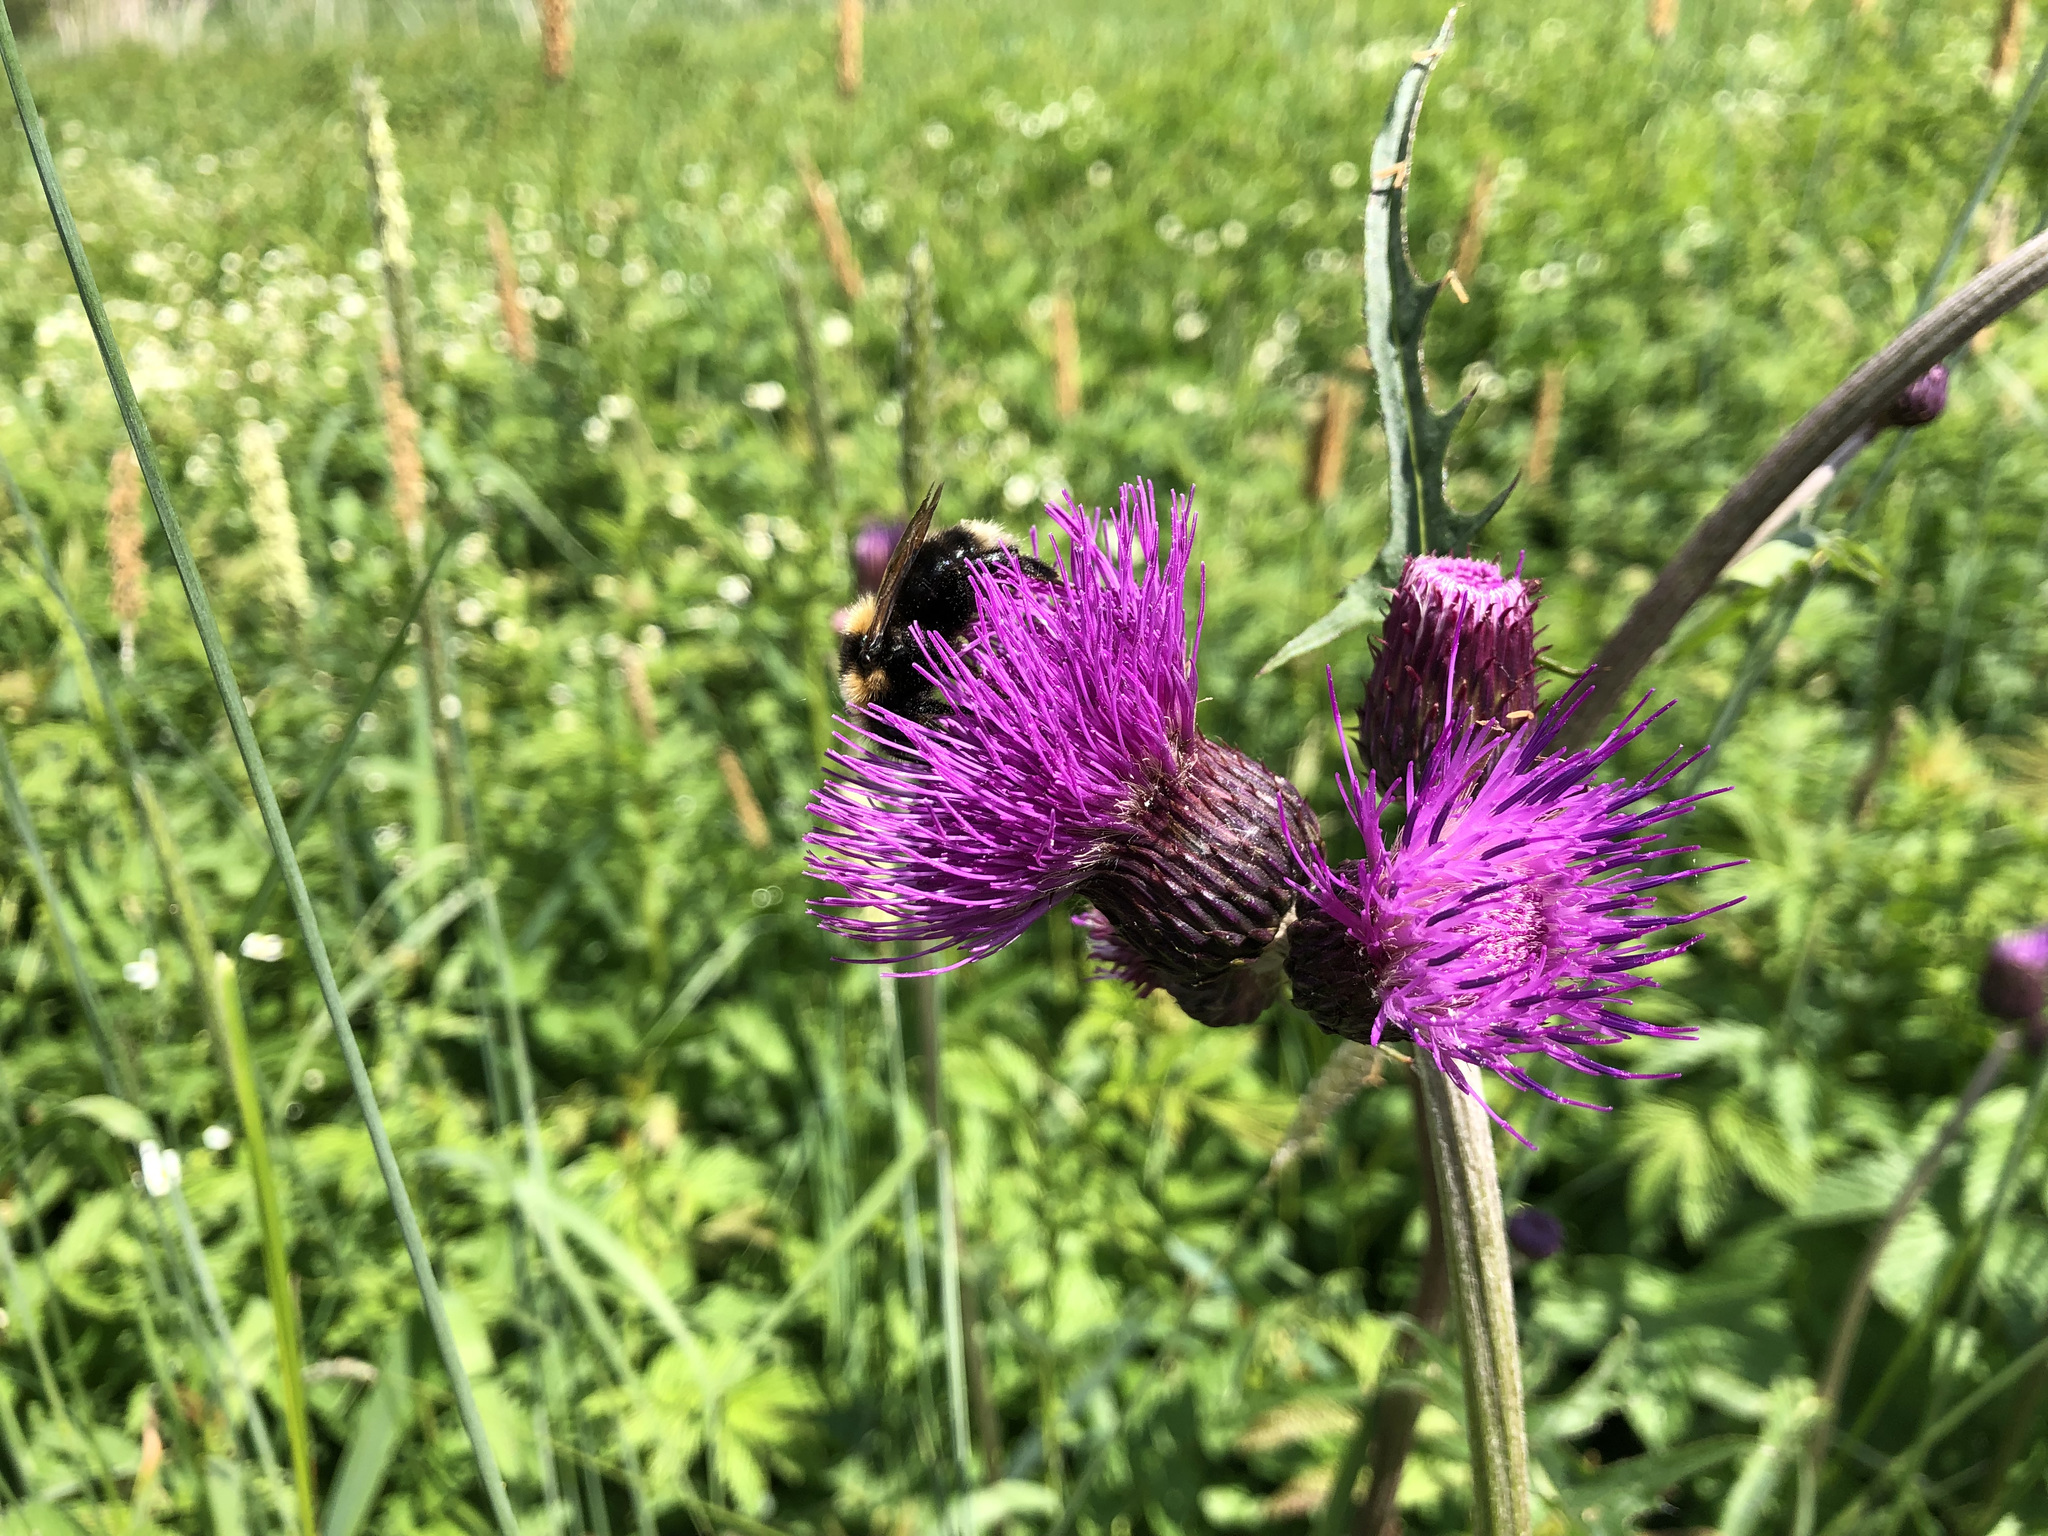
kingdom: Plantae
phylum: Tracheophyta
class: Magnoliopsida
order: Asterales
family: Asteraceae
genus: Cirsium
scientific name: Cirsium rivulare
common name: Brook thistle
